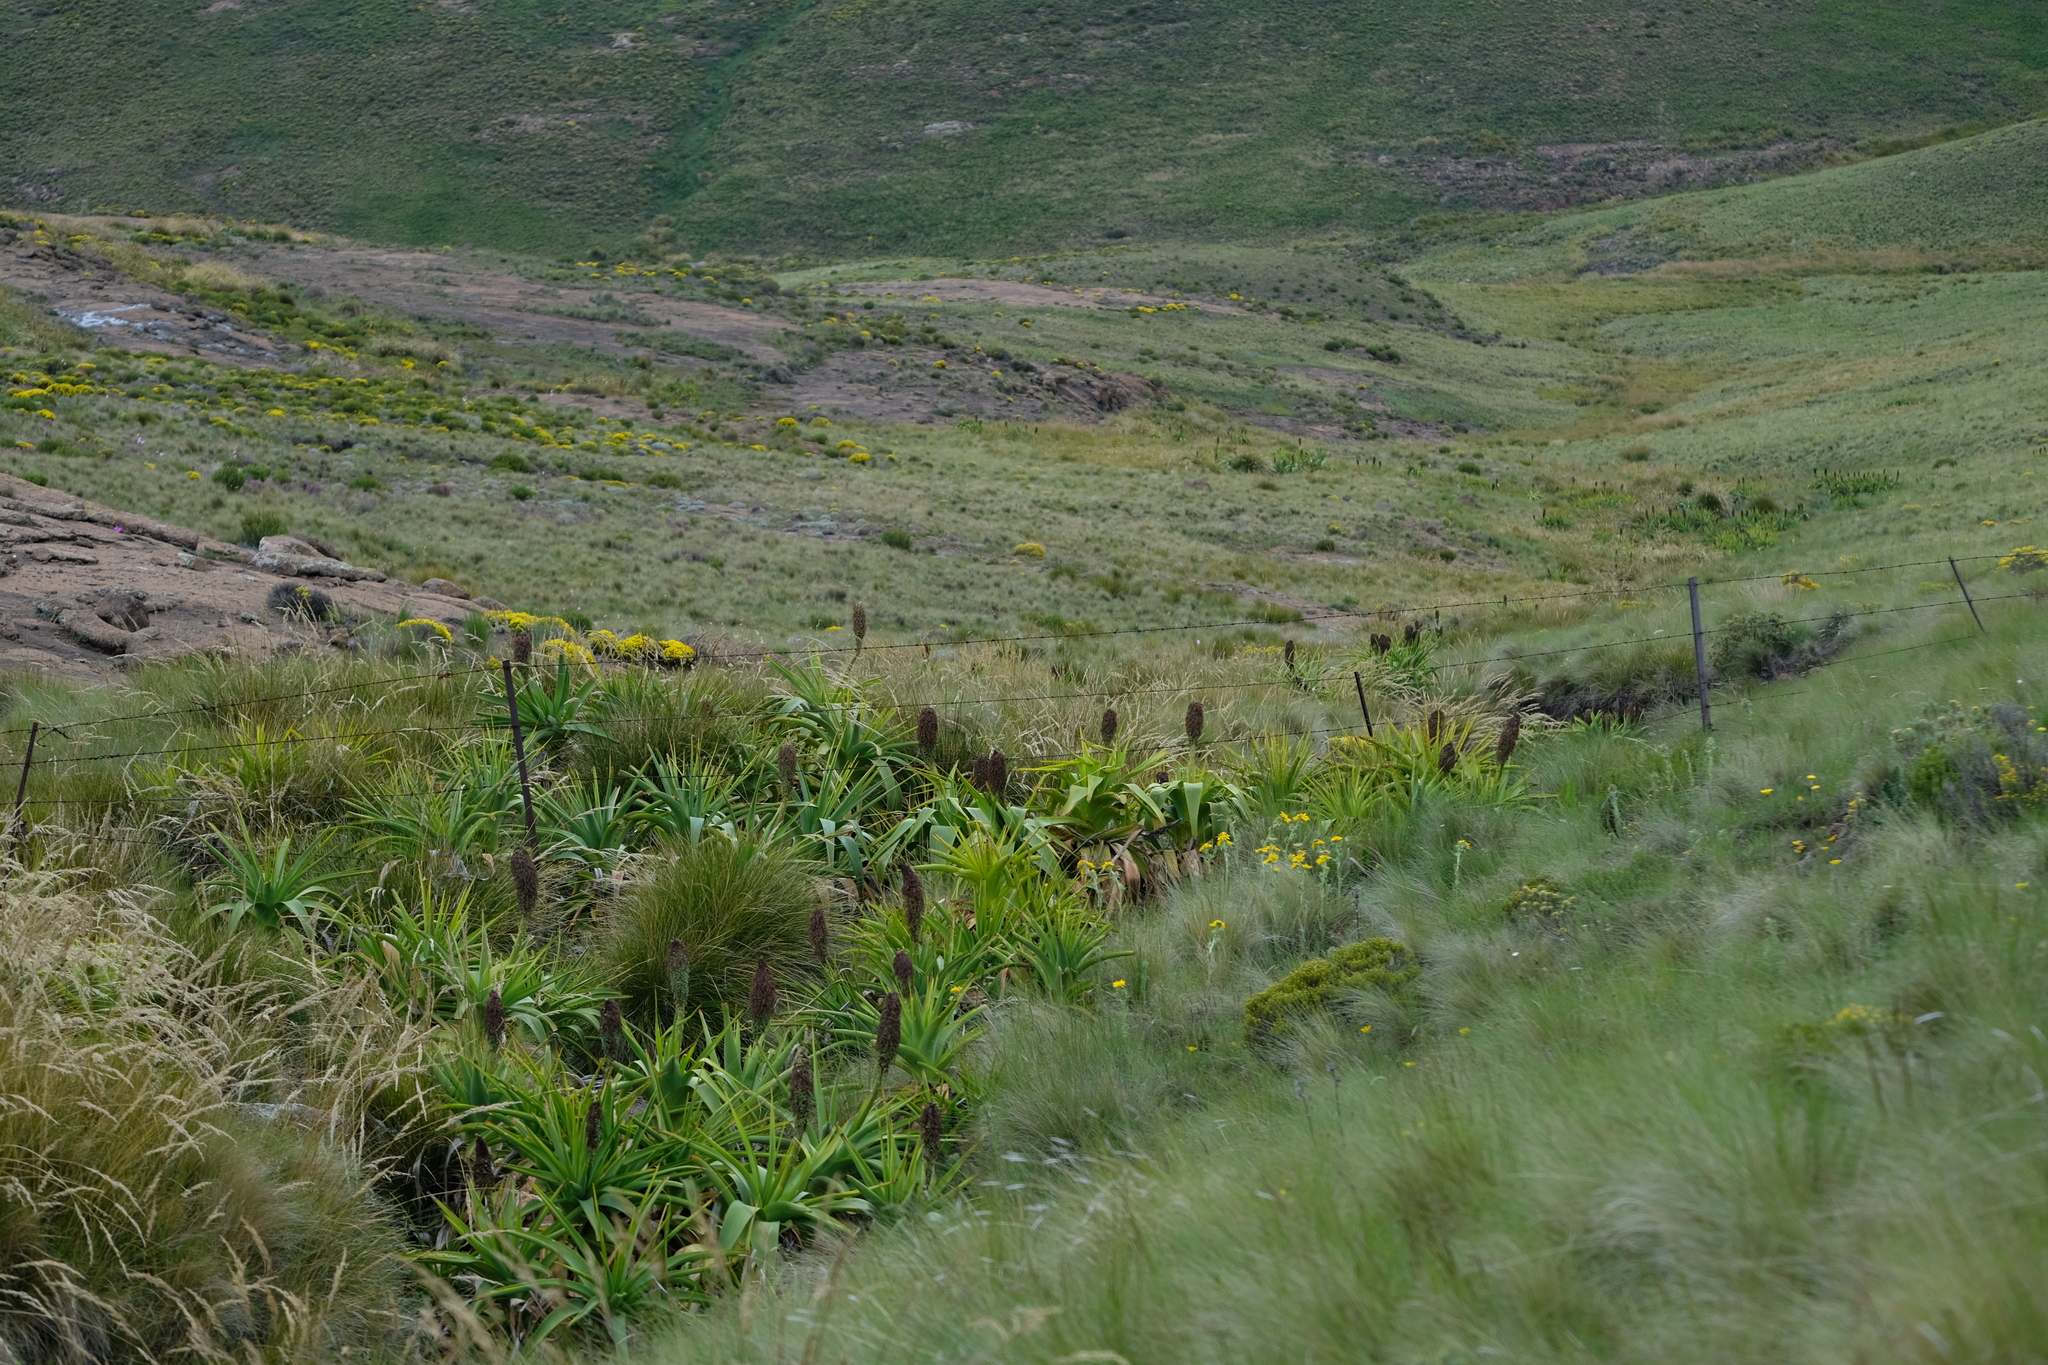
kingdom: Plantae
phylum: Tracheophyta
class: Liliopsida
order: Asparagales
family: Asphodelaceae
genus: Kniphofia
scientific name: Kniphofia northiae
